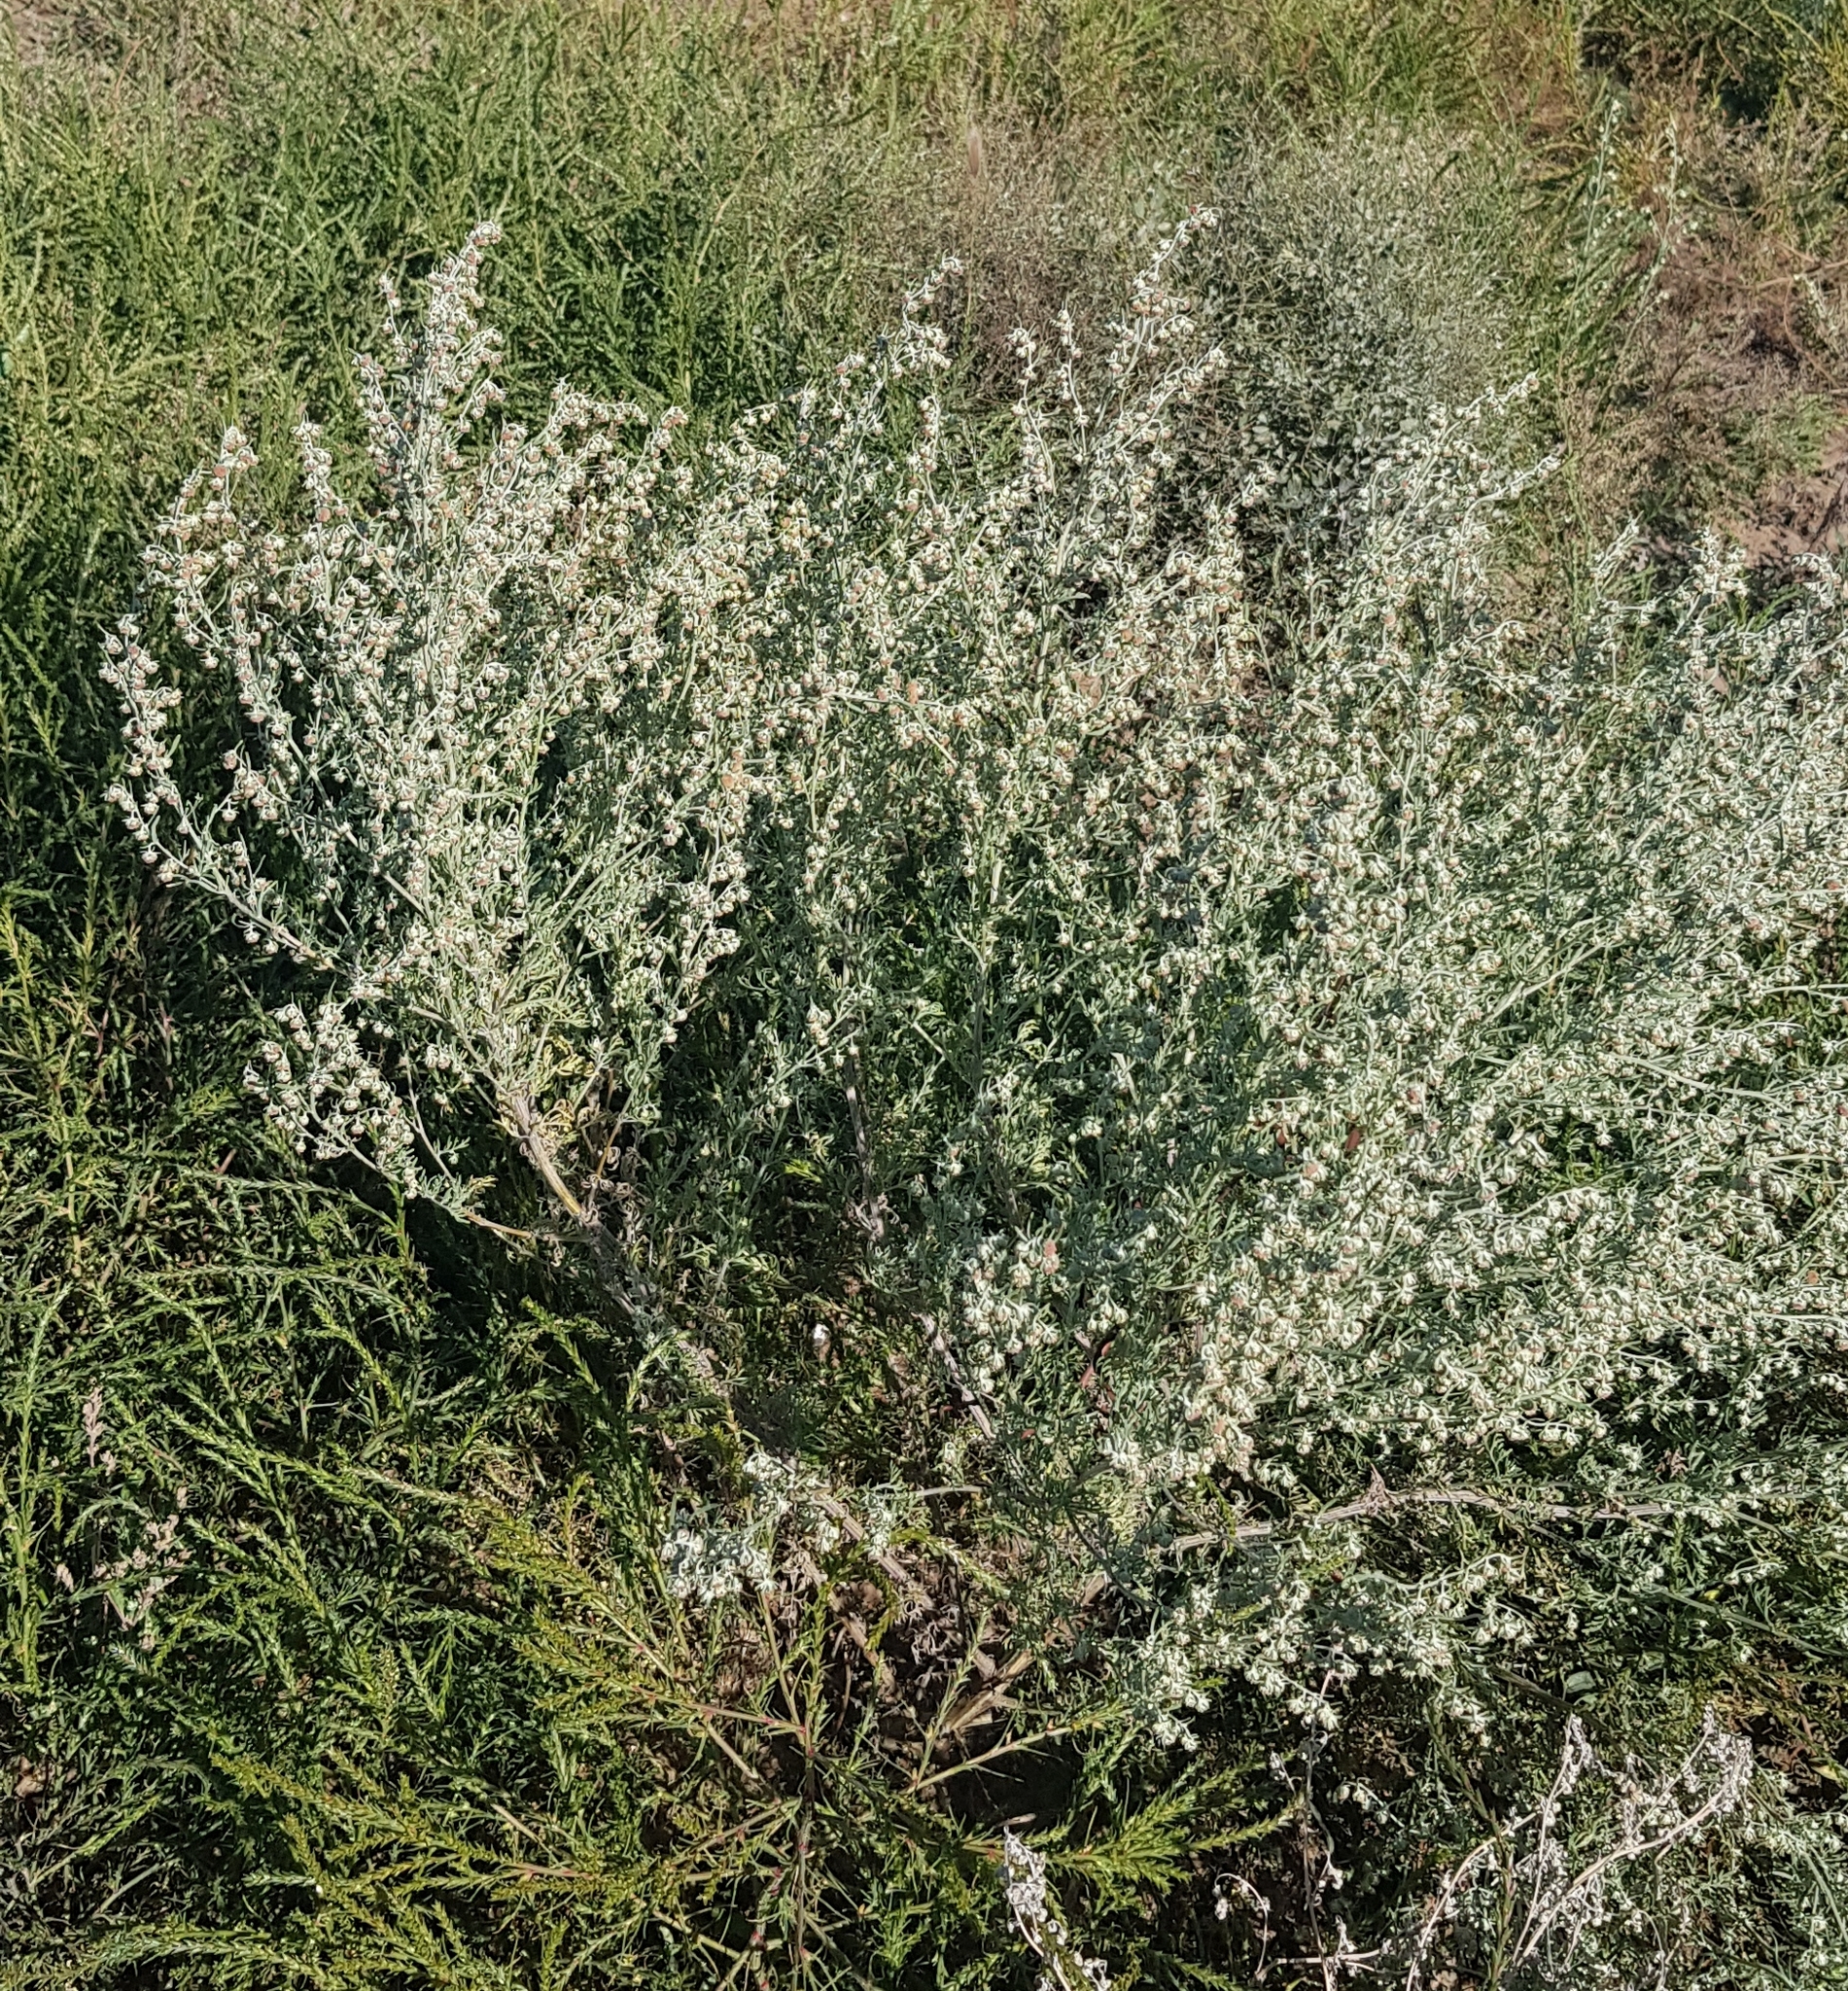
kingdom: Plantae
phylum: Tracheophyta
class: Magnoliopsida
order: Asterales
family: Asteraceae
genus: Artemisia
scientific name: Artemisia sieversiana
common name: Sieversian wormwood
